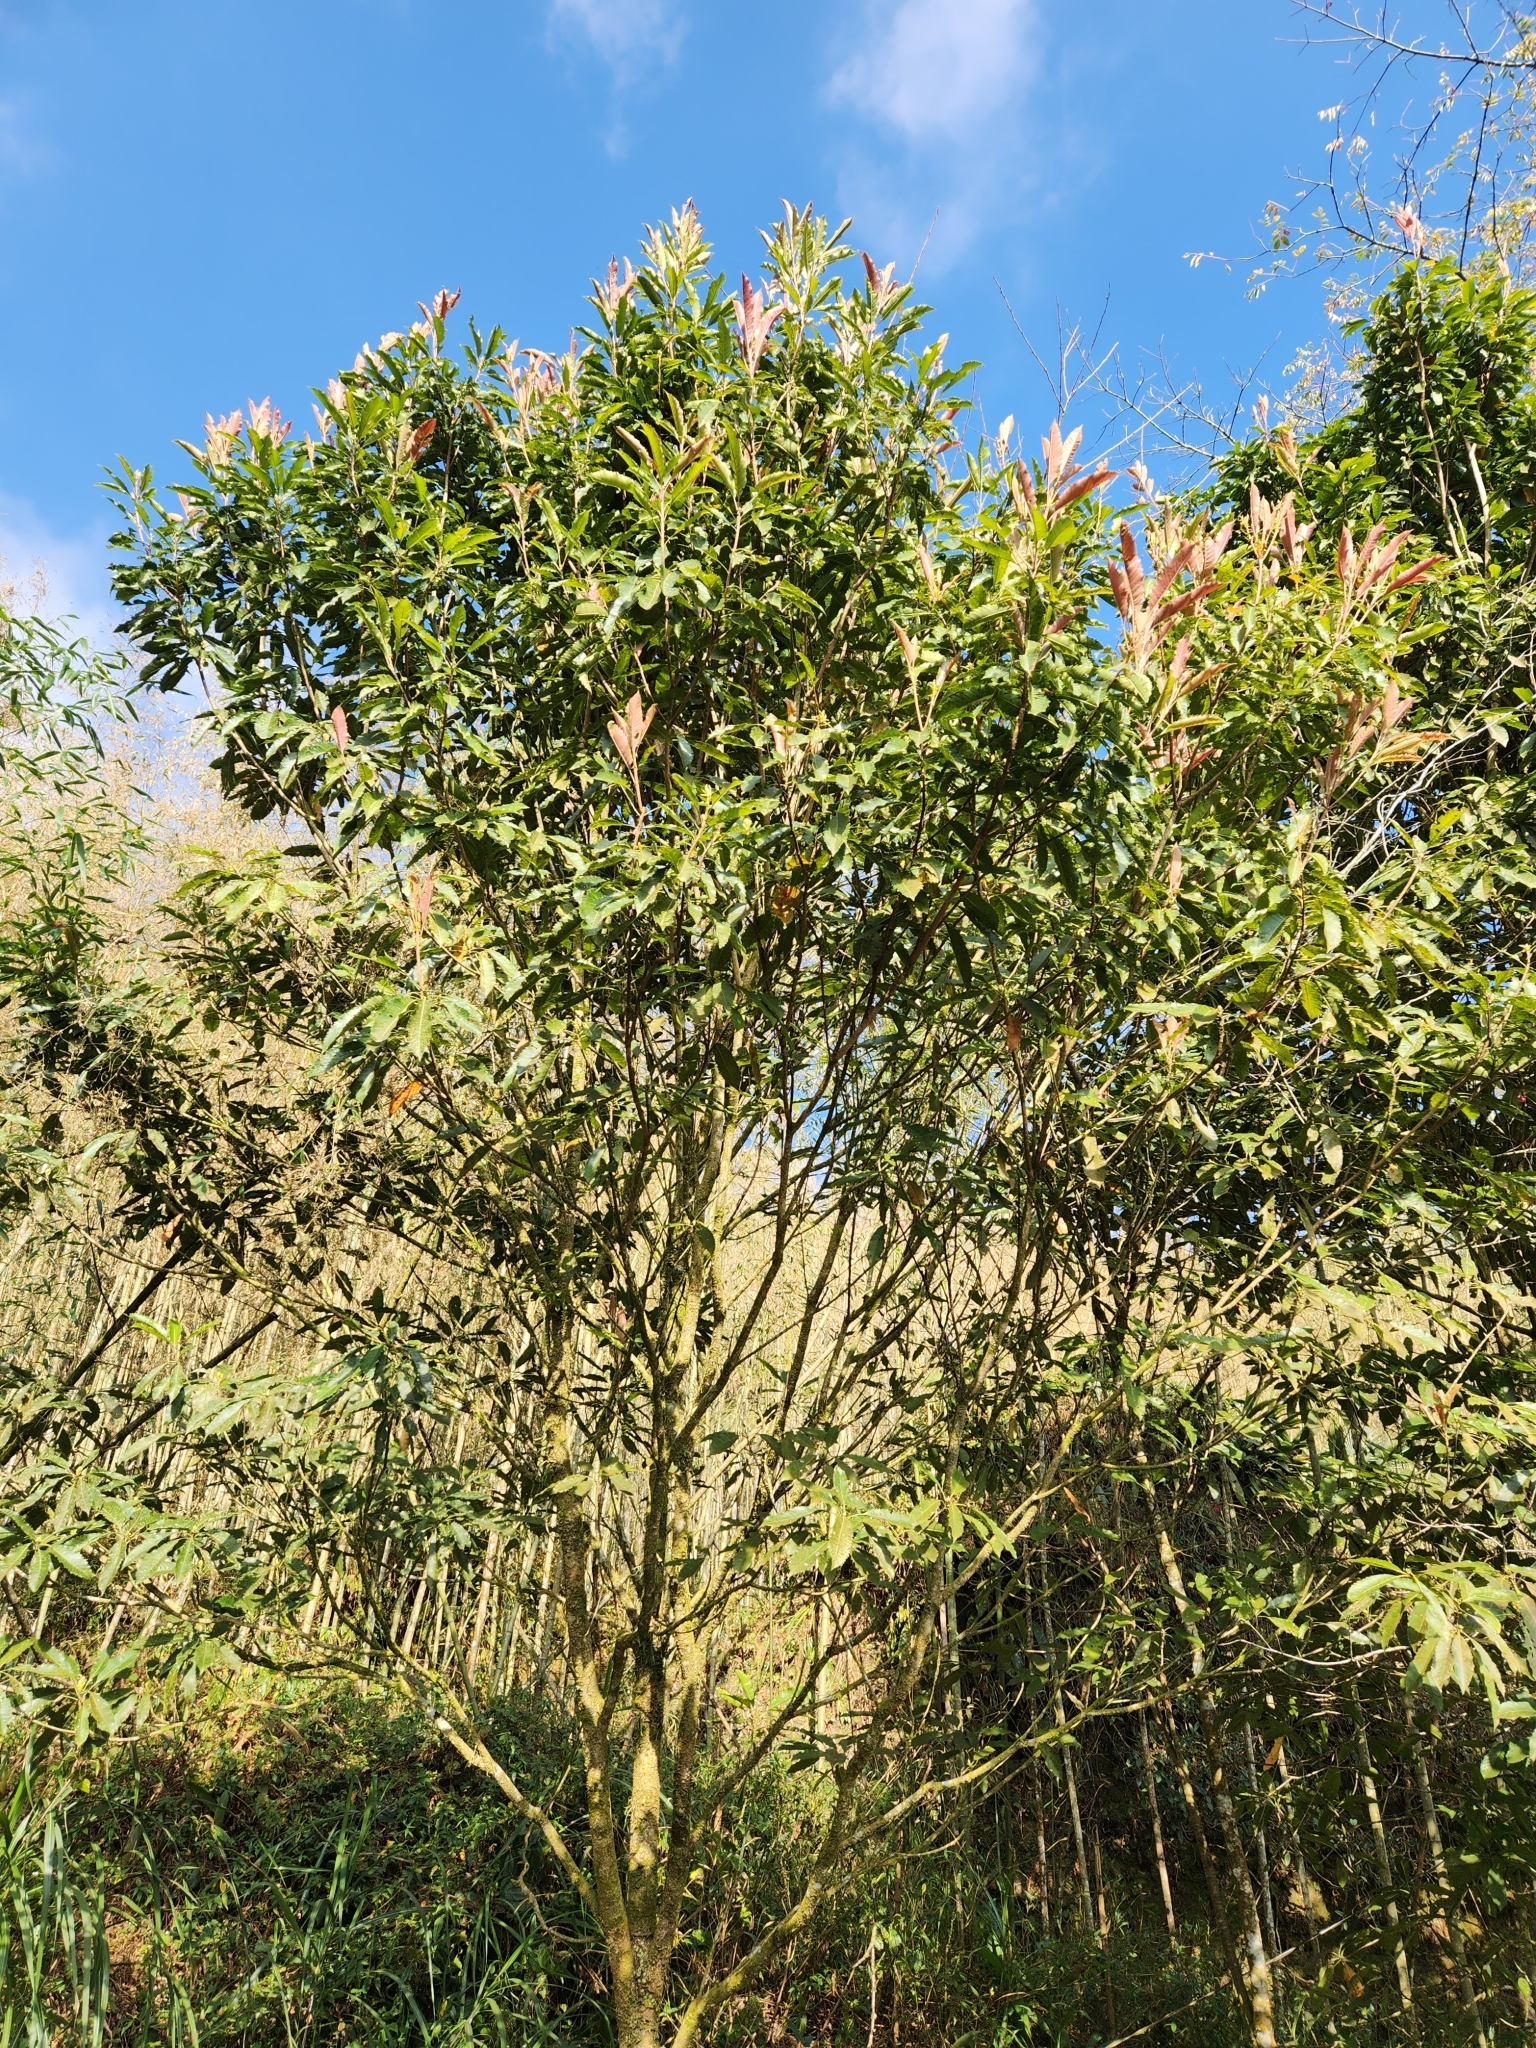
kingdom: Plantae
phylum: Tracheophyta
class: Magnoliopsida
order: Rosales
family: Rosaceae
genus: Rhaphiolepis
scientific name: Rhaphiolepis deflexa
